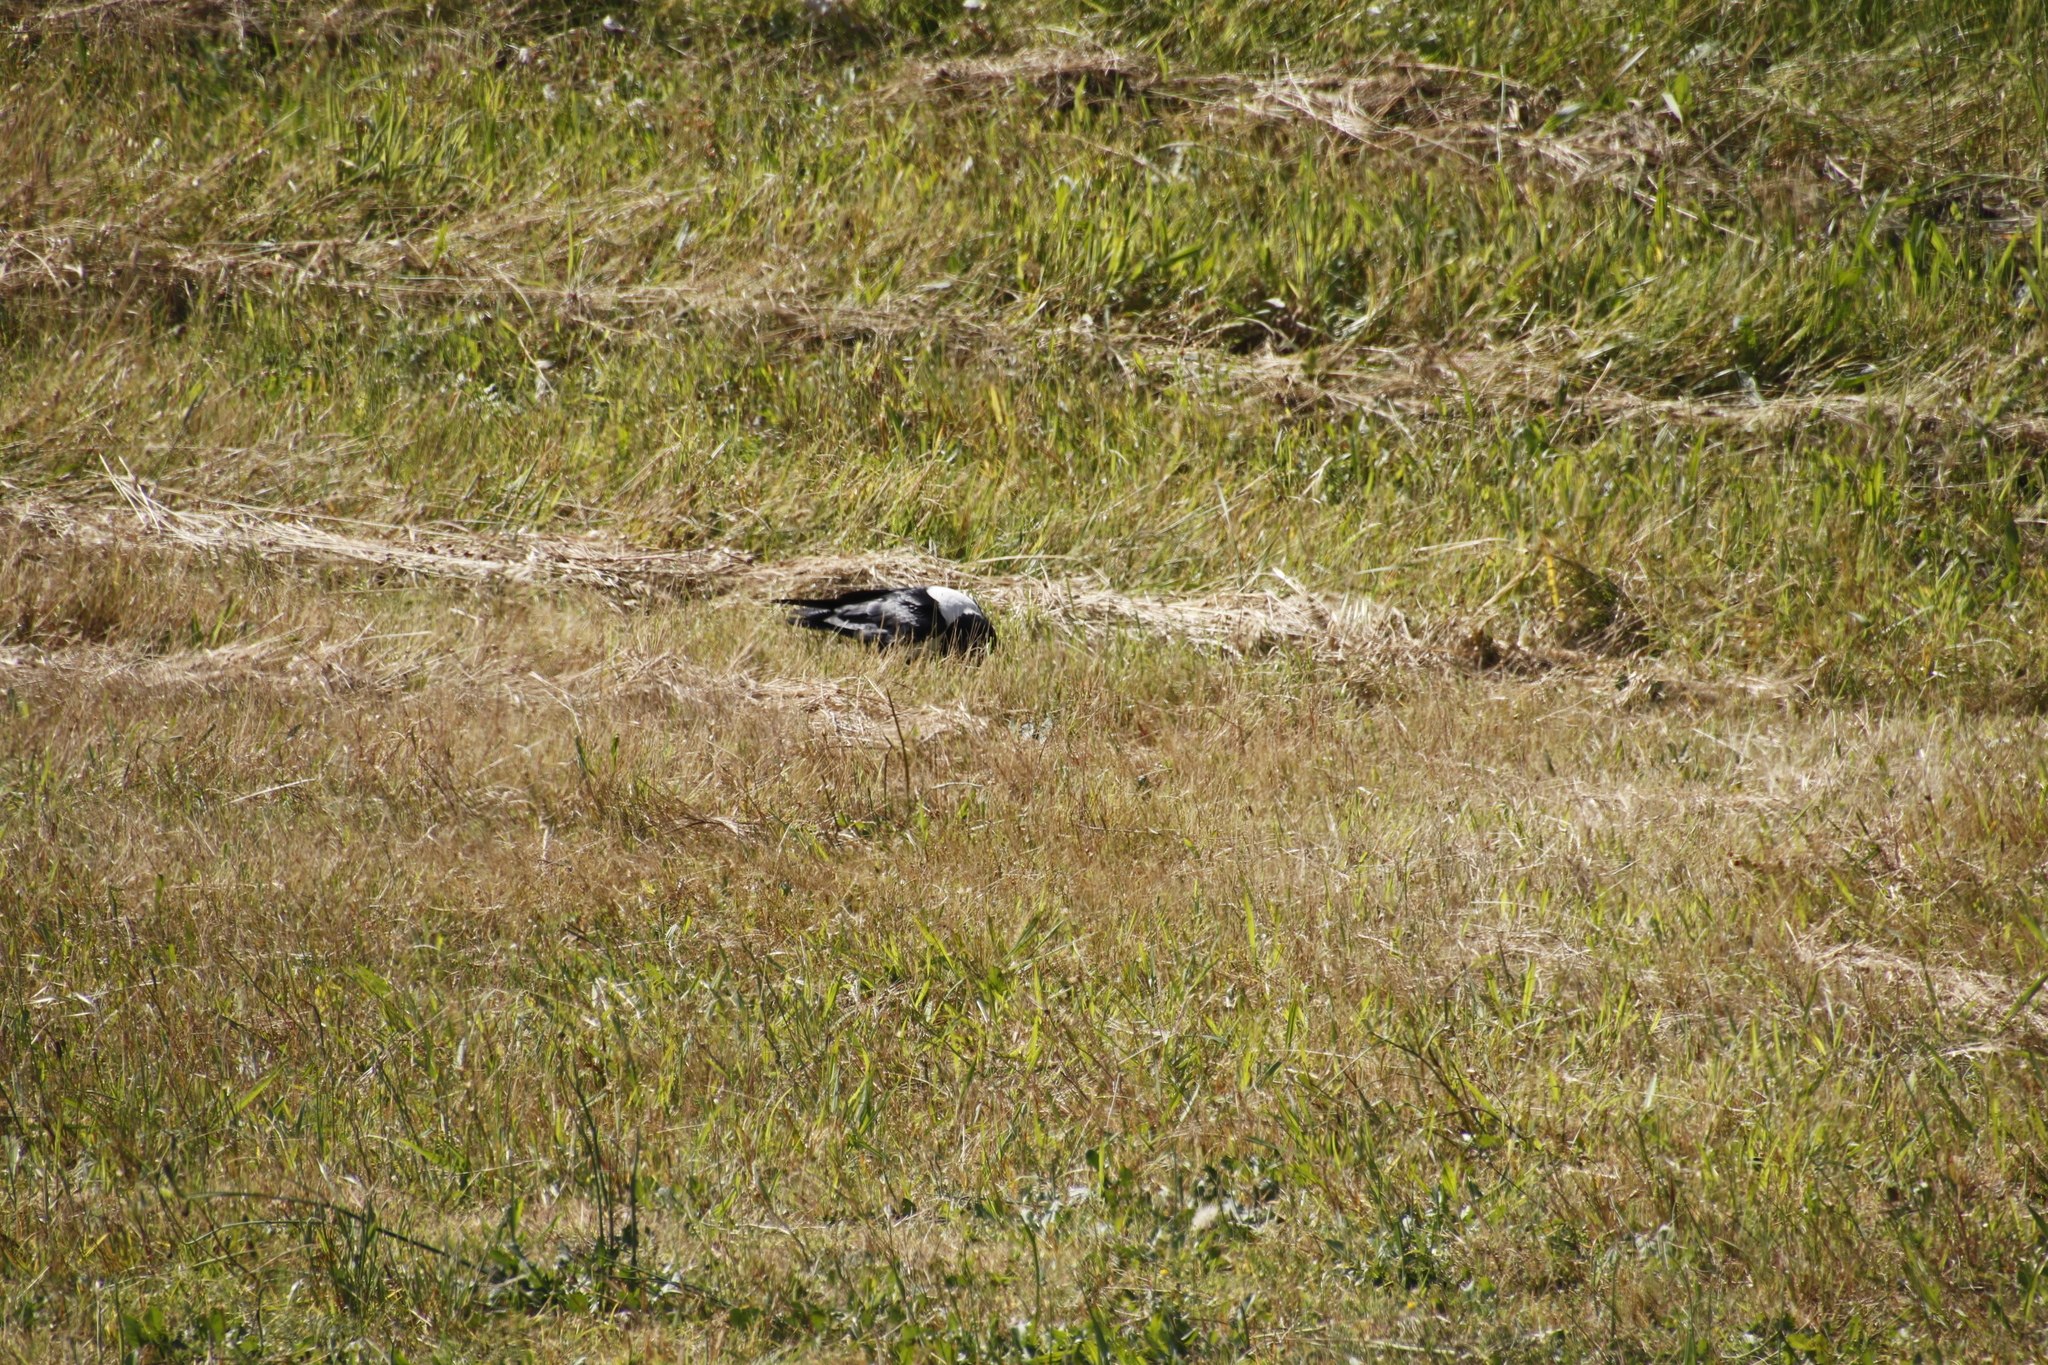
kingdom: Animalia
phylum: Chordata
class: Aves
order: Passeriformes
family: Corvidae
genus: Corvus
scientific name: Corvus albus
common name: Pied crow
